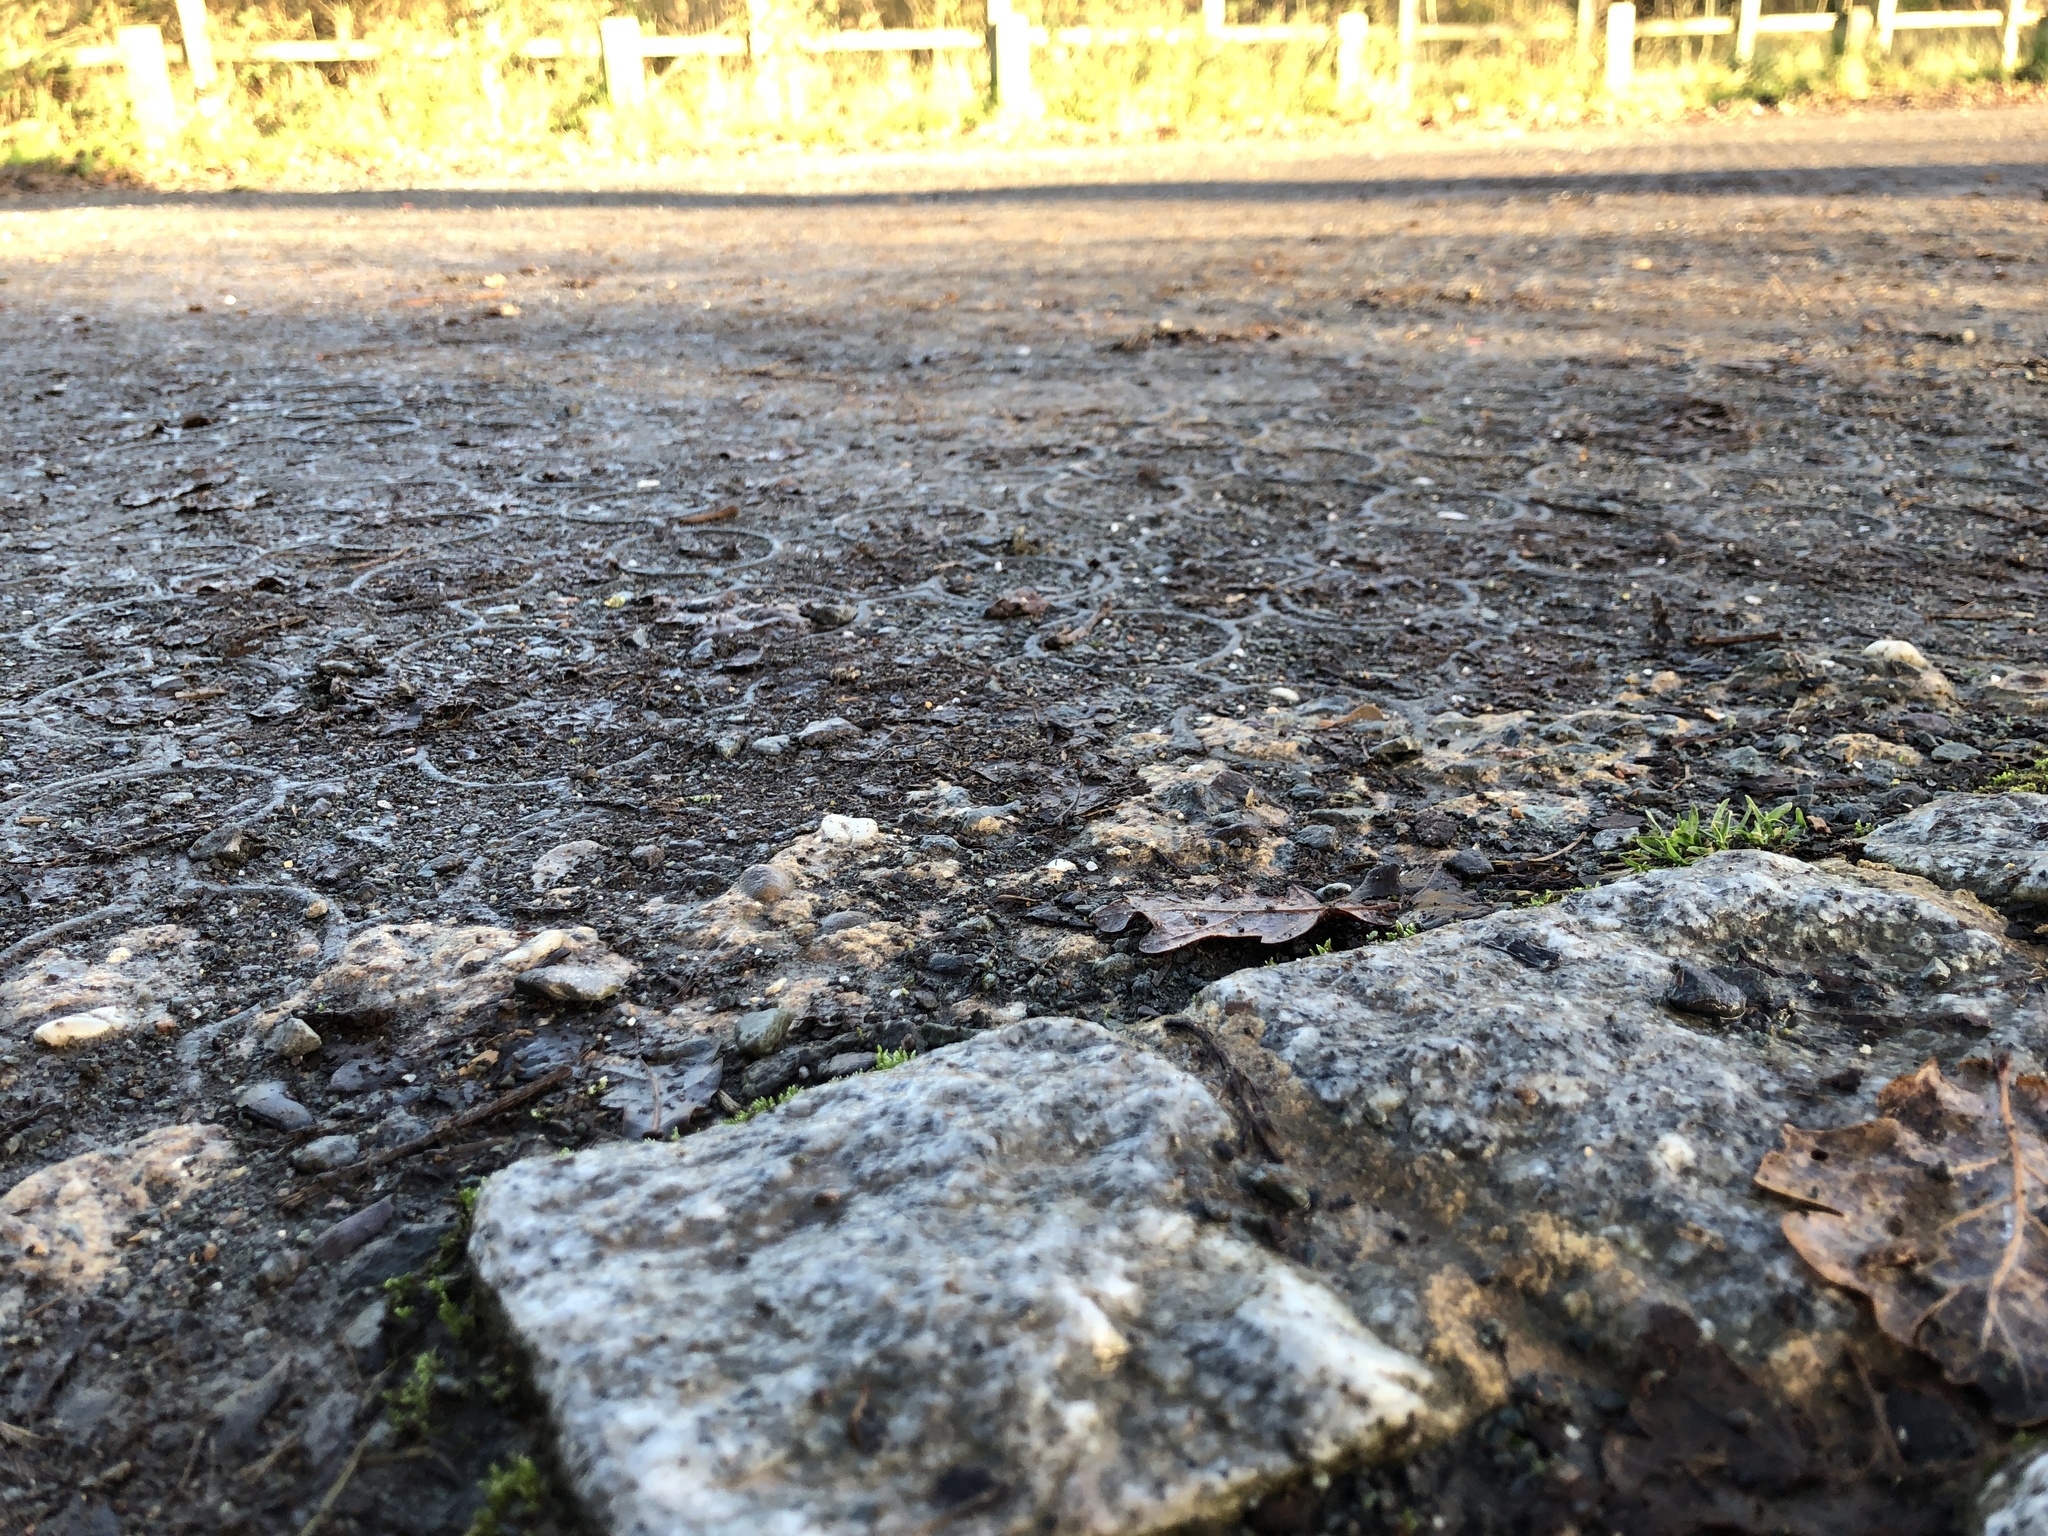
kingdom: Plantae
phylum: Bryophyta
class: Bryopsida
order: Bryales
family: Bryaceae
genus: Bryum
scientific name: Bryum argenteum
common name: Silver-moss
